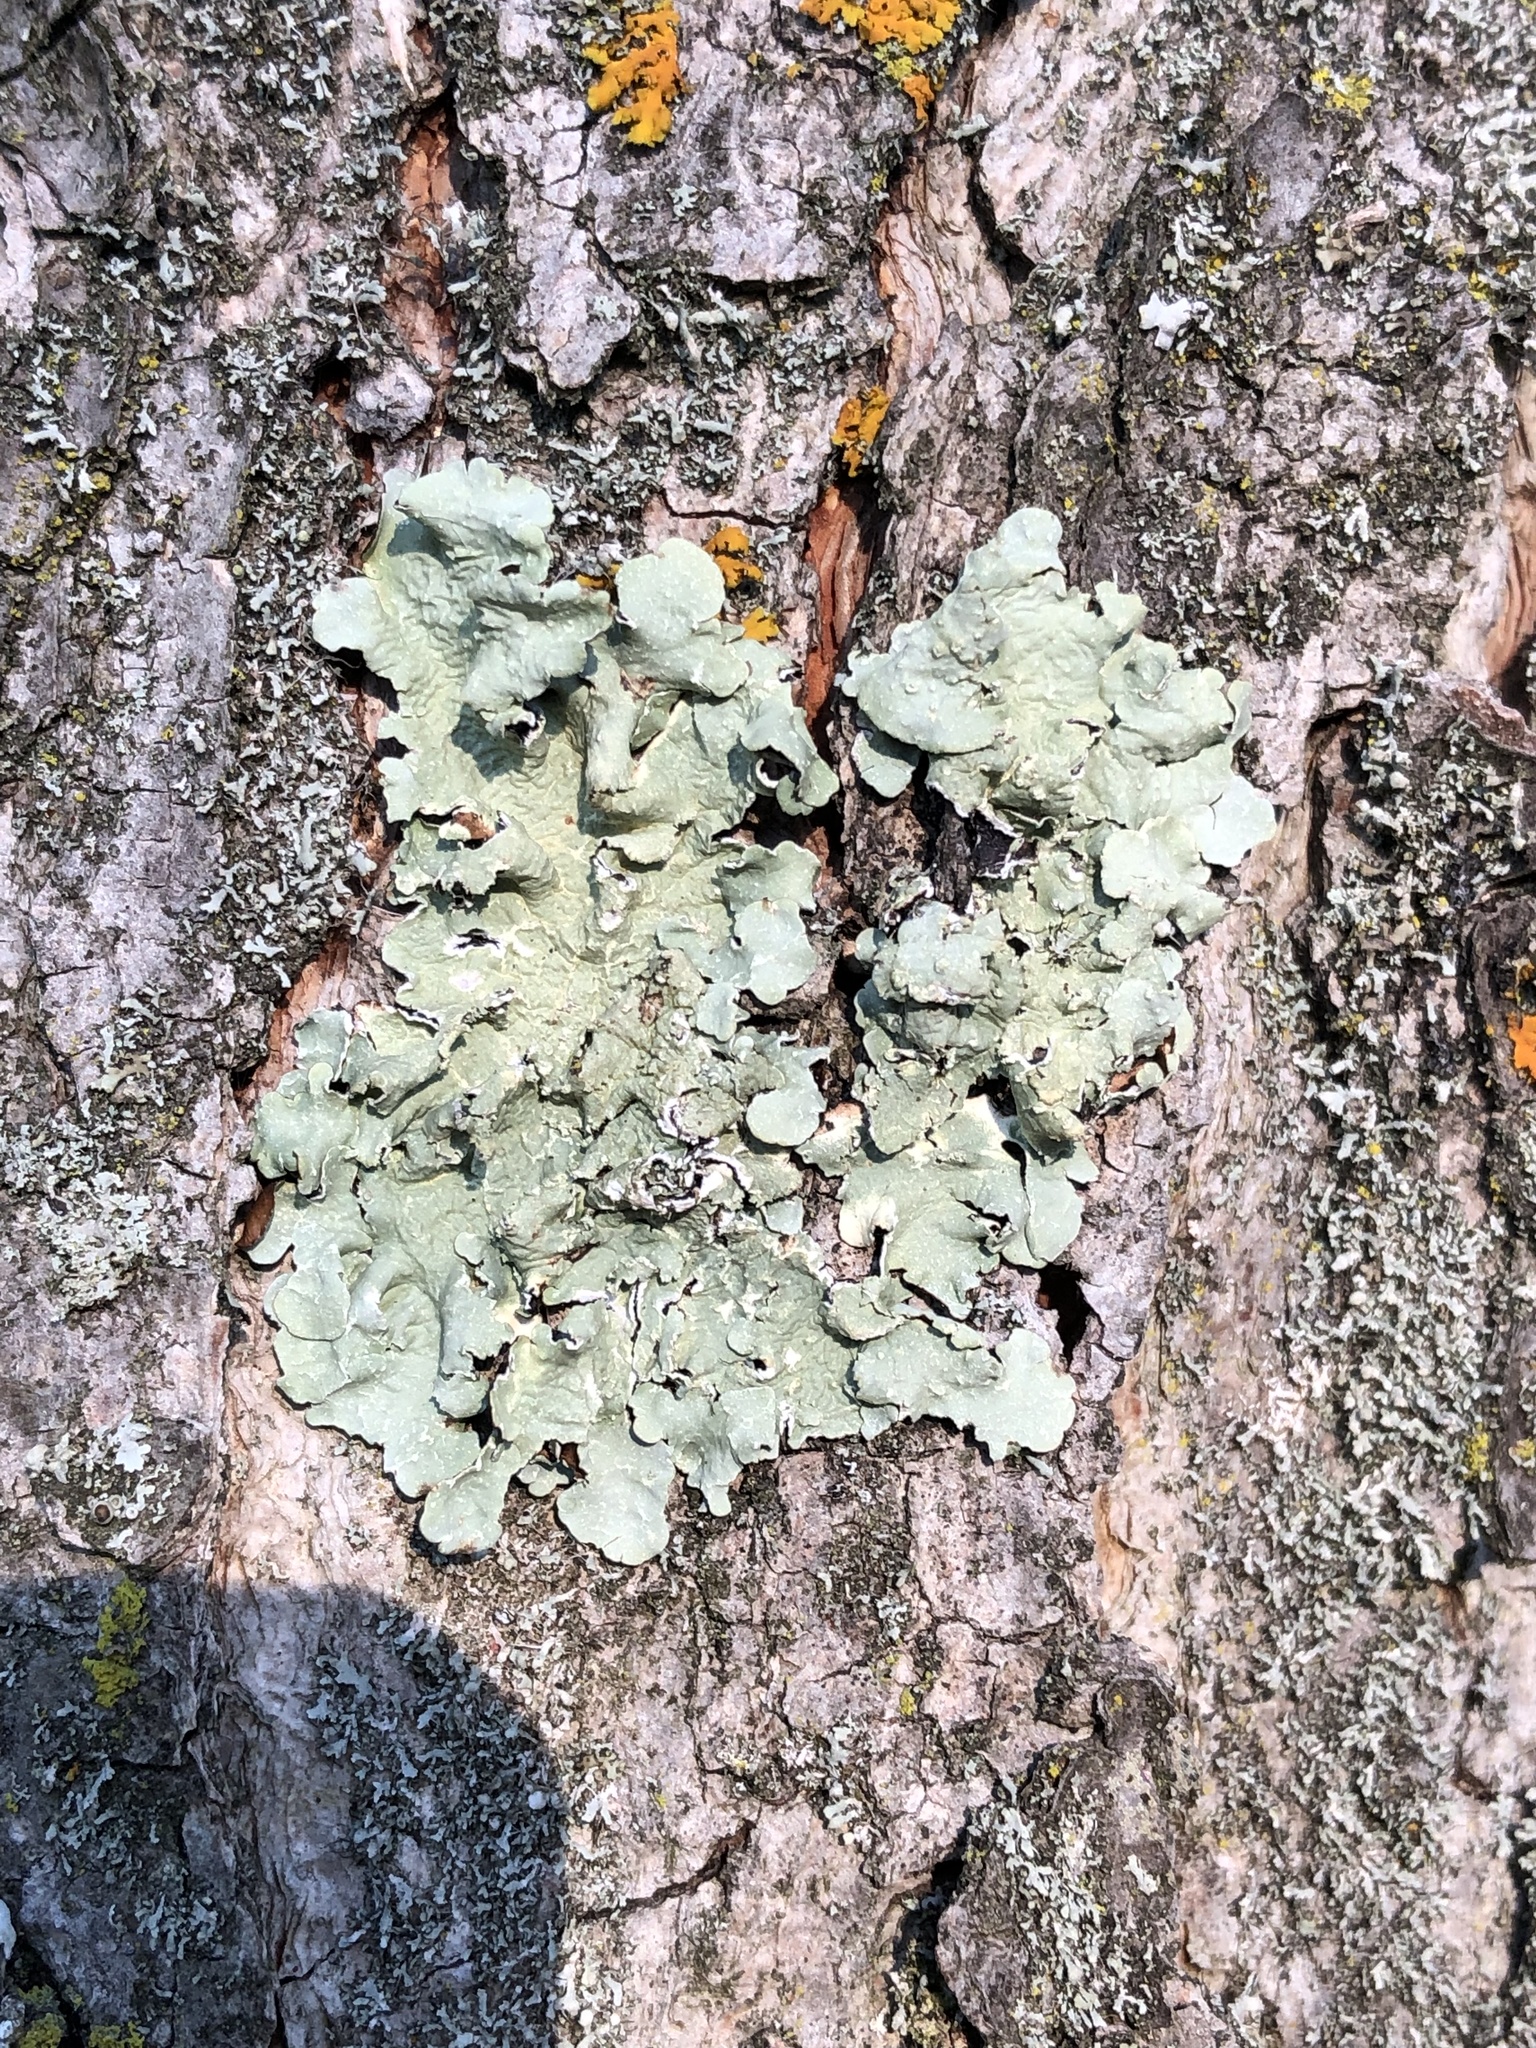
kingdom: Fungi
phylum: Ascomycota
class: Lecanoromycetes
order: Lecanorales
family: Parmeliaceae
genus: Flavopunctelia
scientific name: Flavopunctelia flaventior
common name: Speckled greenshield
